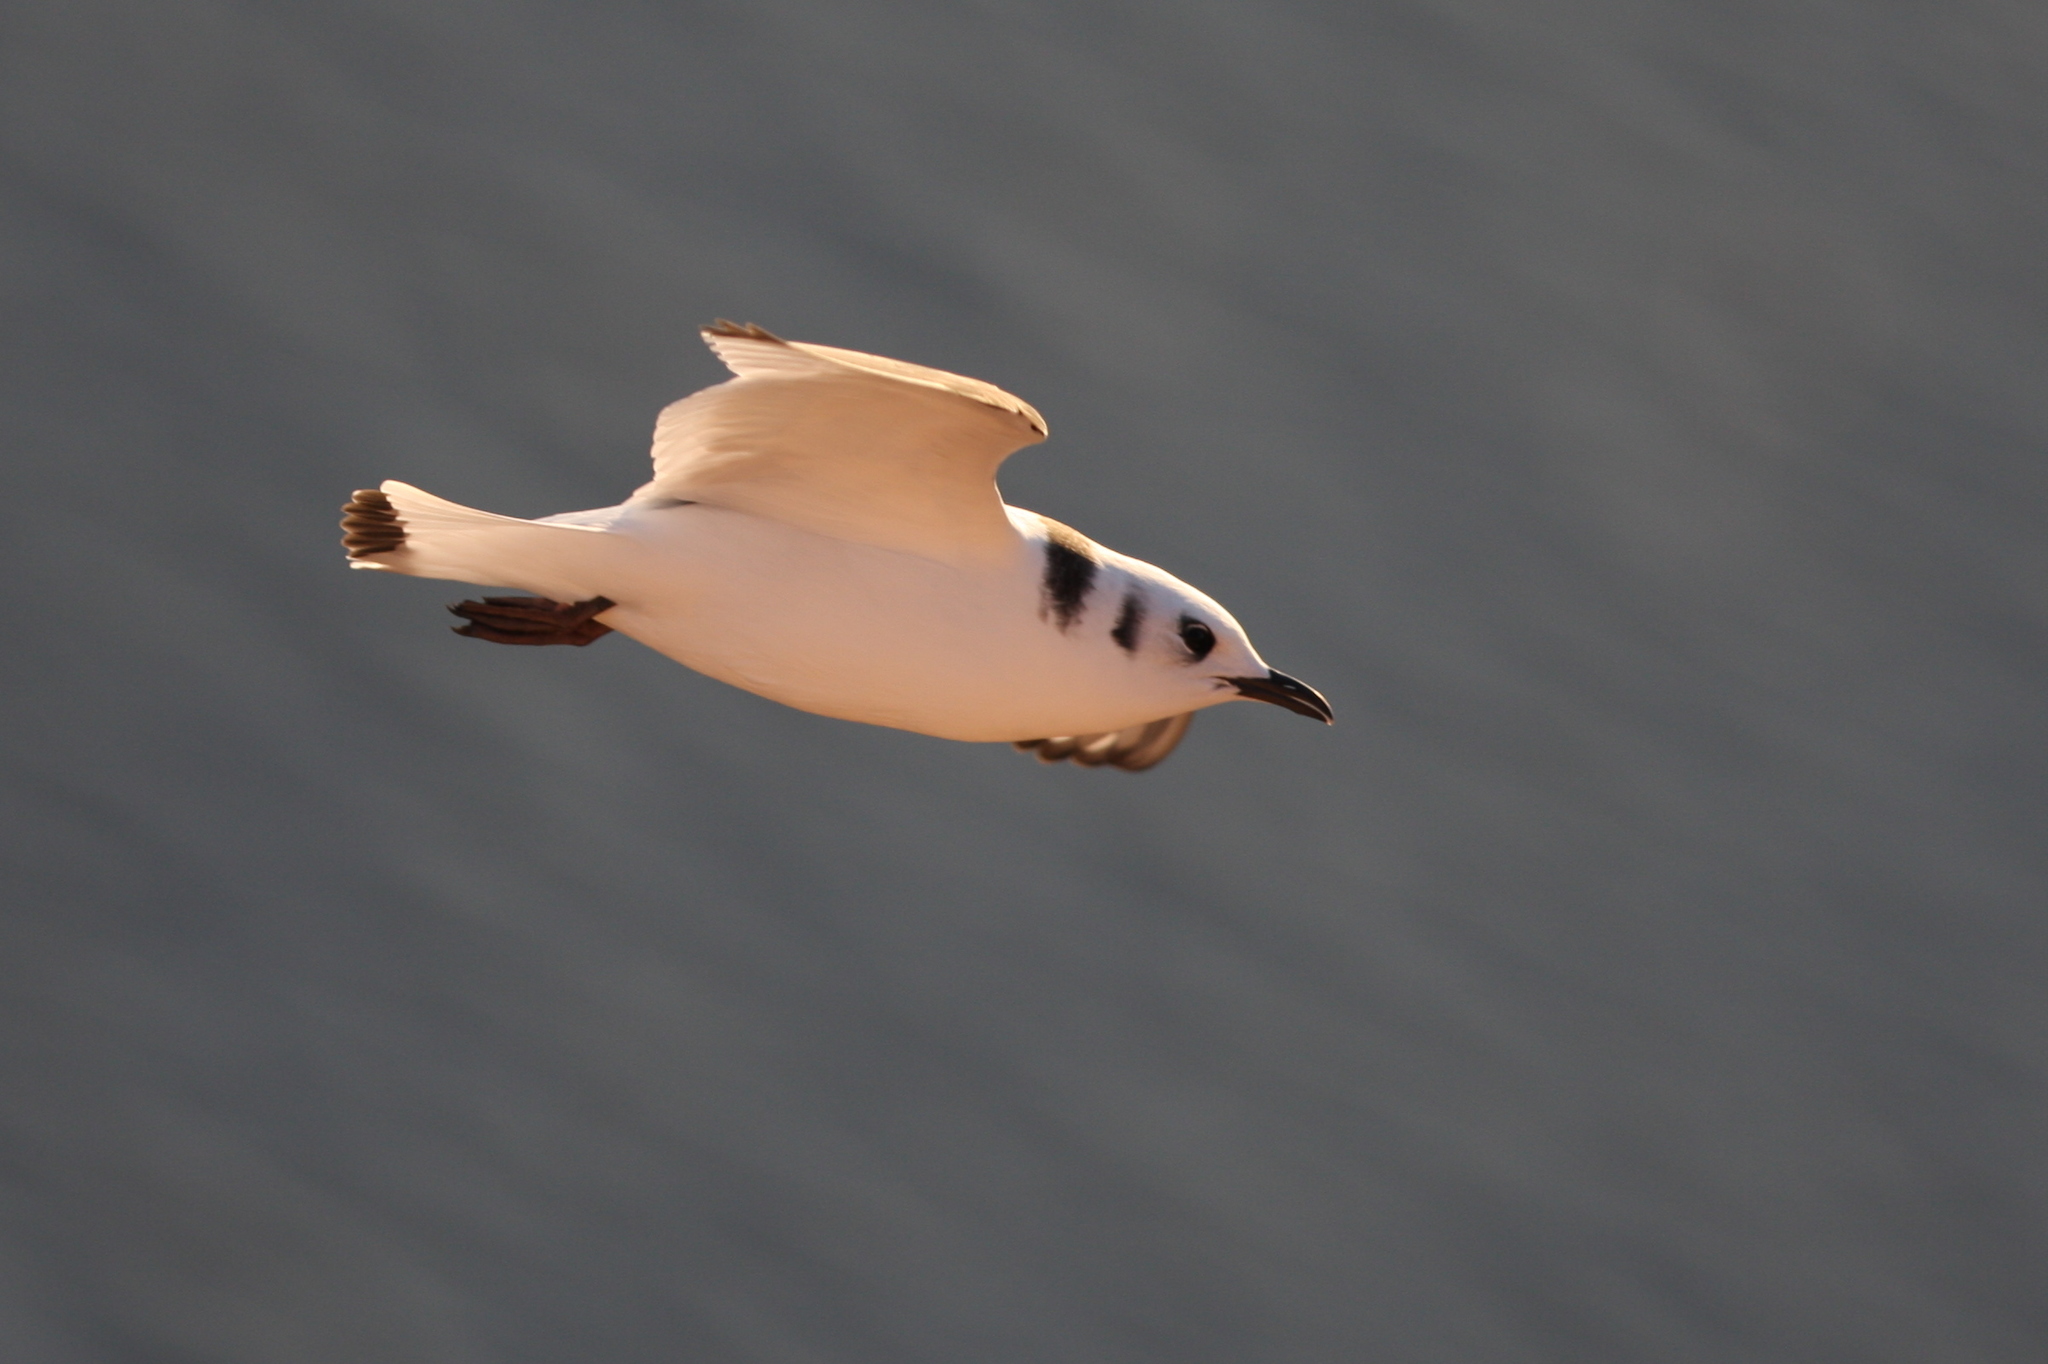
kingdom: Animalia
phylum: Chordata
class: Aves
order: Charadriiformes
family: Laridae
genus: Rissa
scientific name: Rissa tridactyla
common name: Black-legged kittiwake
